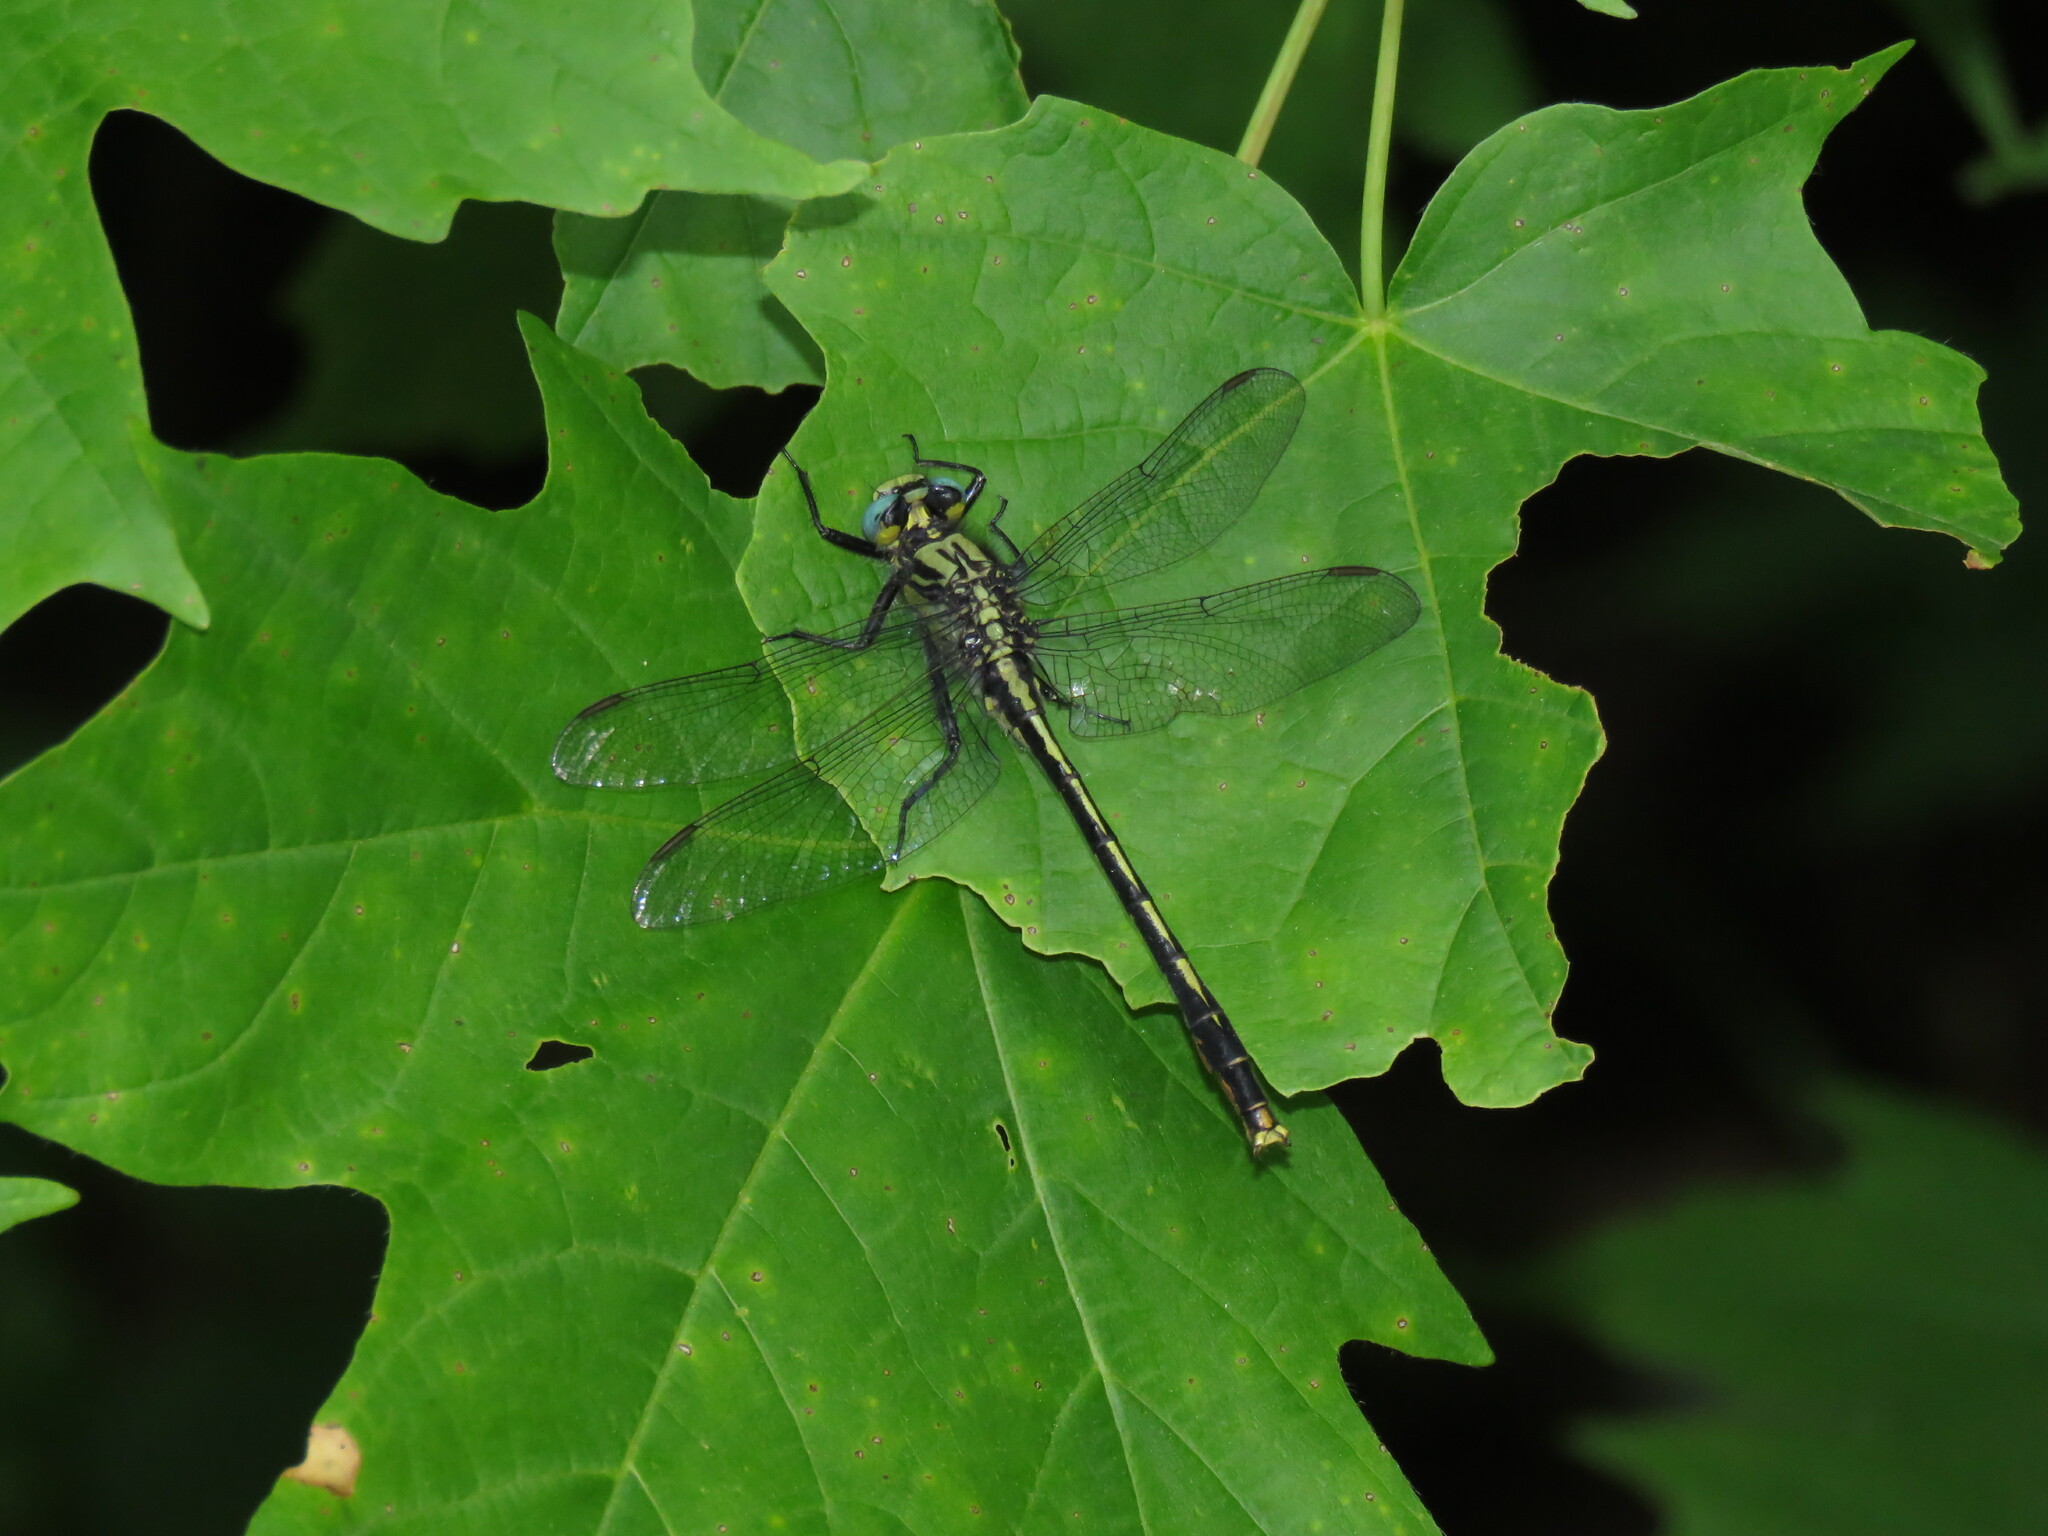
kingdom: Animalia
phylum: Arthropoda
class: Insecta
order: Odonata
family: Gomphidae
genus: Arigomphus
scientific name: Arigomphus furcifer
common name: Lilypad clubtail
